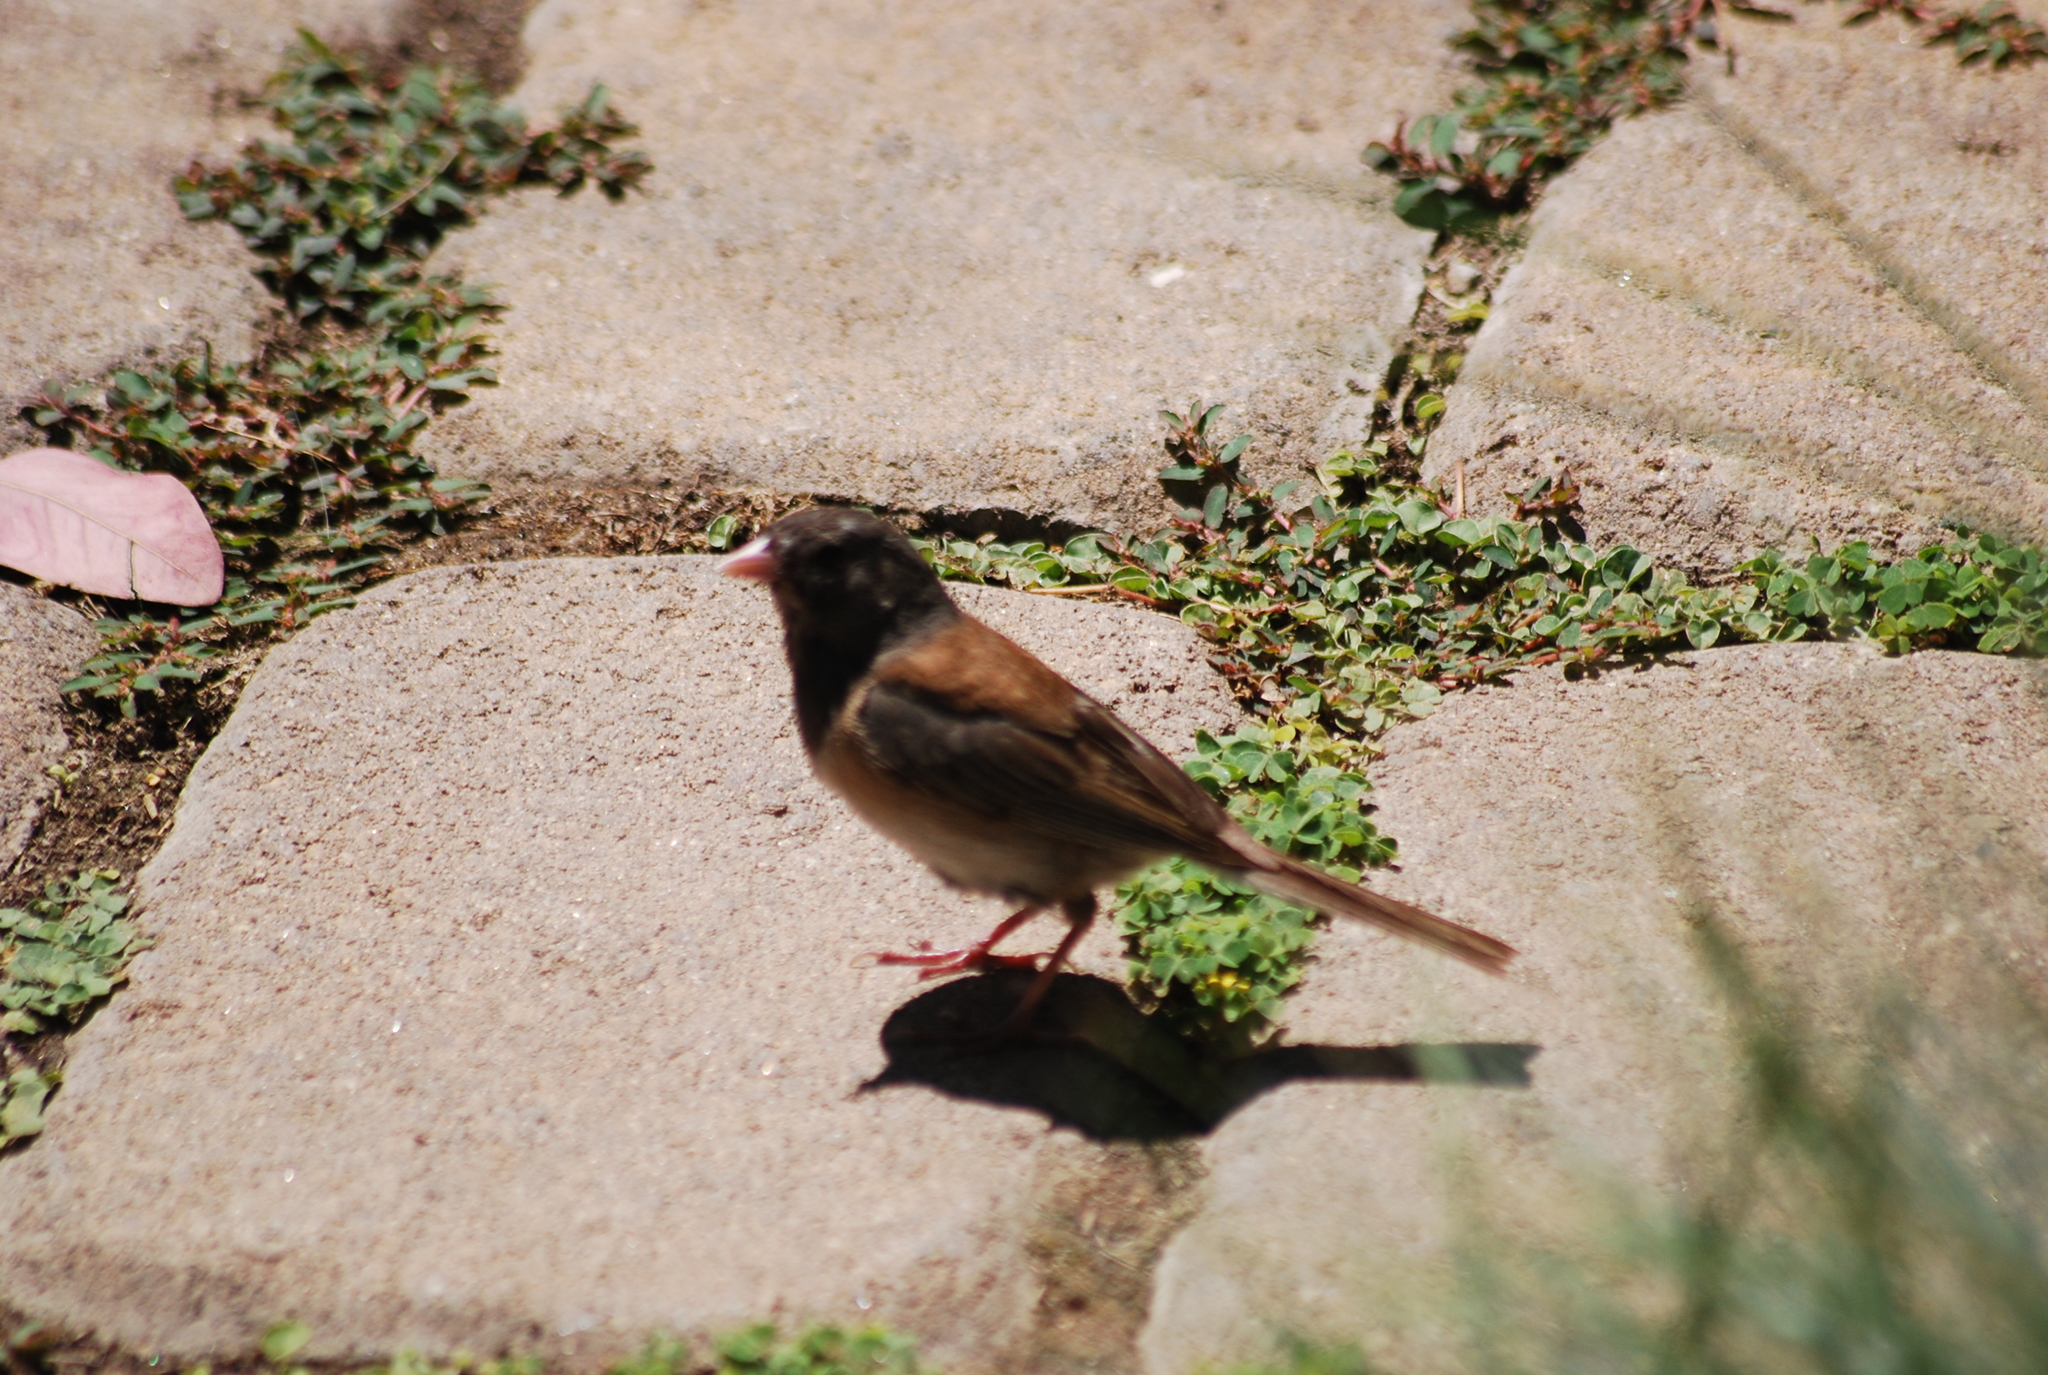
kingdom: Animalia
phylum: Chordata
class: Aves
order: Passeriformes
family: Passerellidae
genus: Junco
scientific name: Junco hyemalis
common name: Dark-eyed junco
